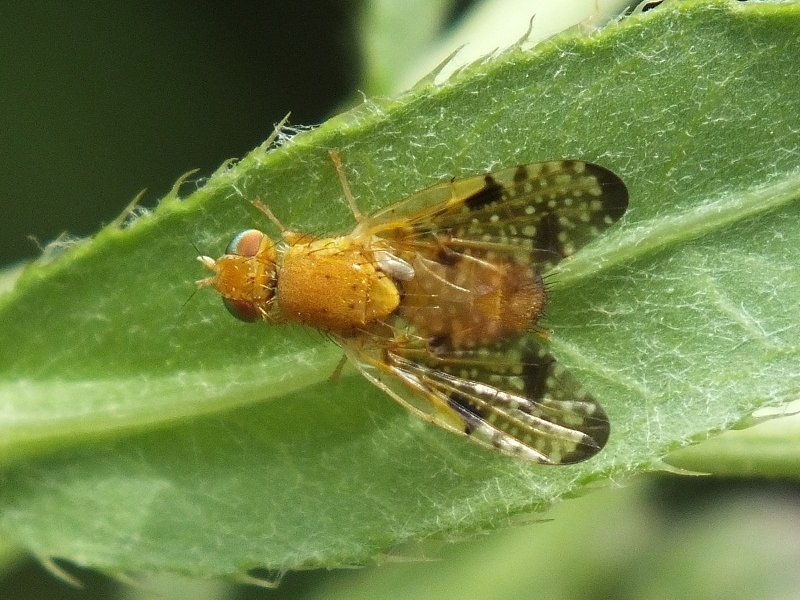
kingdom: Animalia
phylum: Arthropoda
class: Insecta
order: Diptera
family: Tephritidae
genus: Xyphosia
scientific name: Xyphosia miliaria
